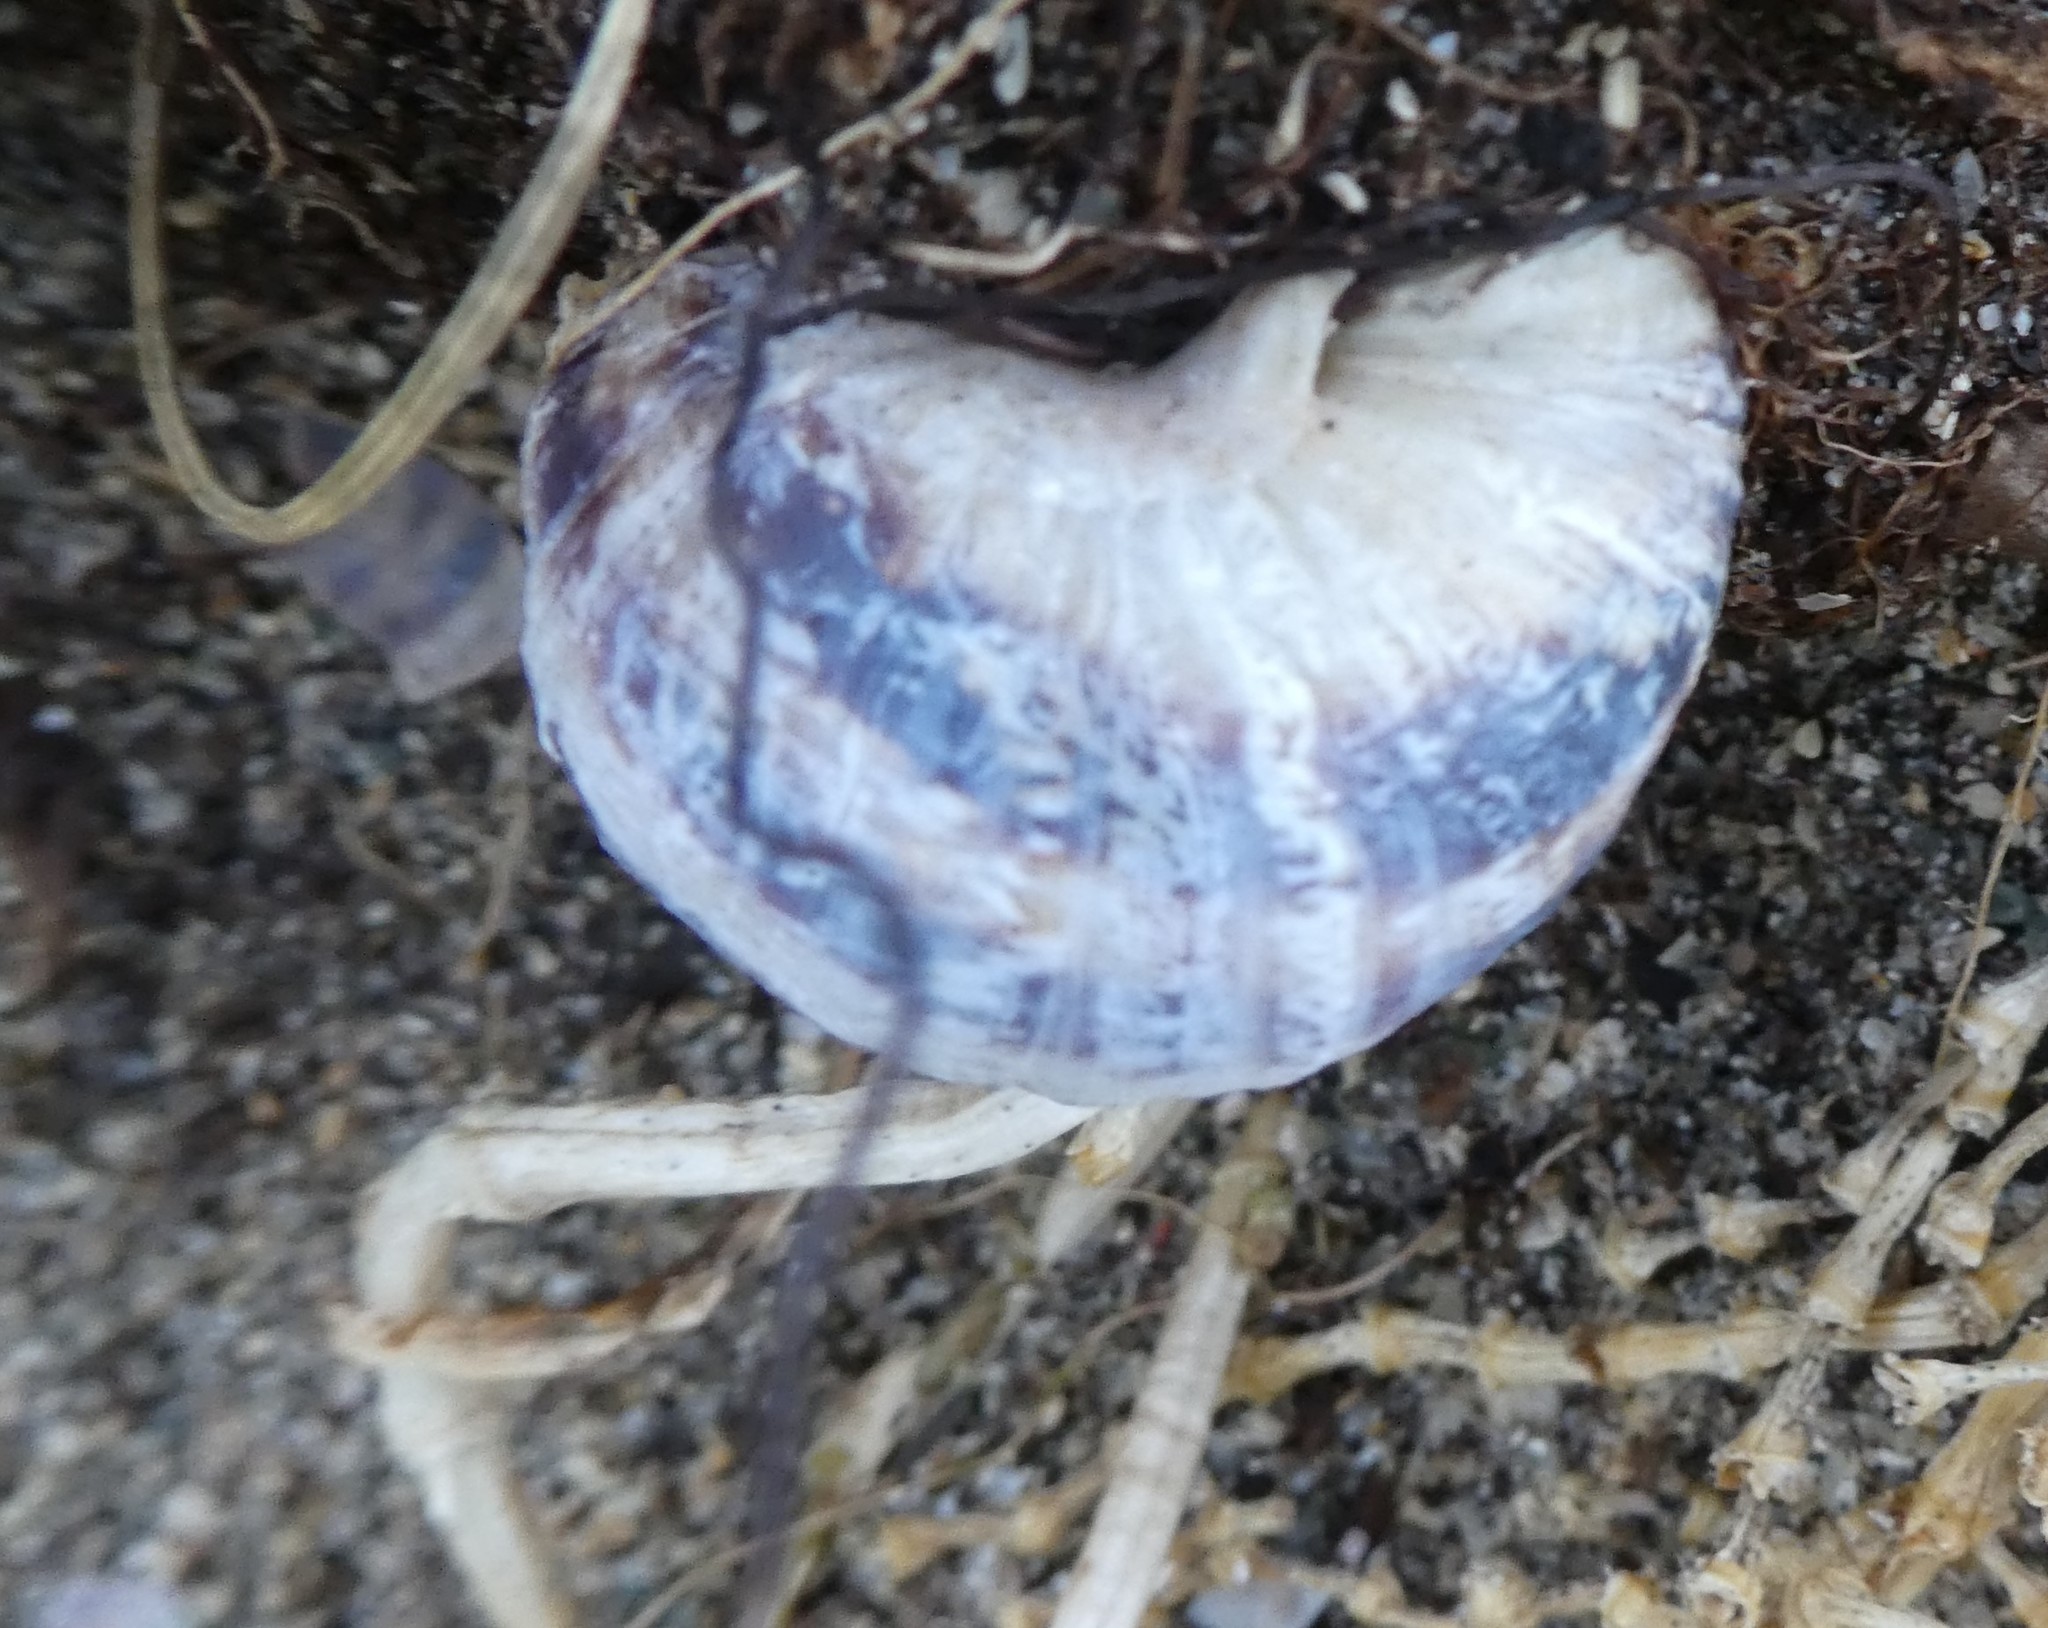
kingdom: Animalia
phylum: Mollusca
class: Gastropoda
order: Stylommatophora
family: Helicidae
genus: Cornu
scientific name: Cornu aspersum
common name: Brown garden snail
